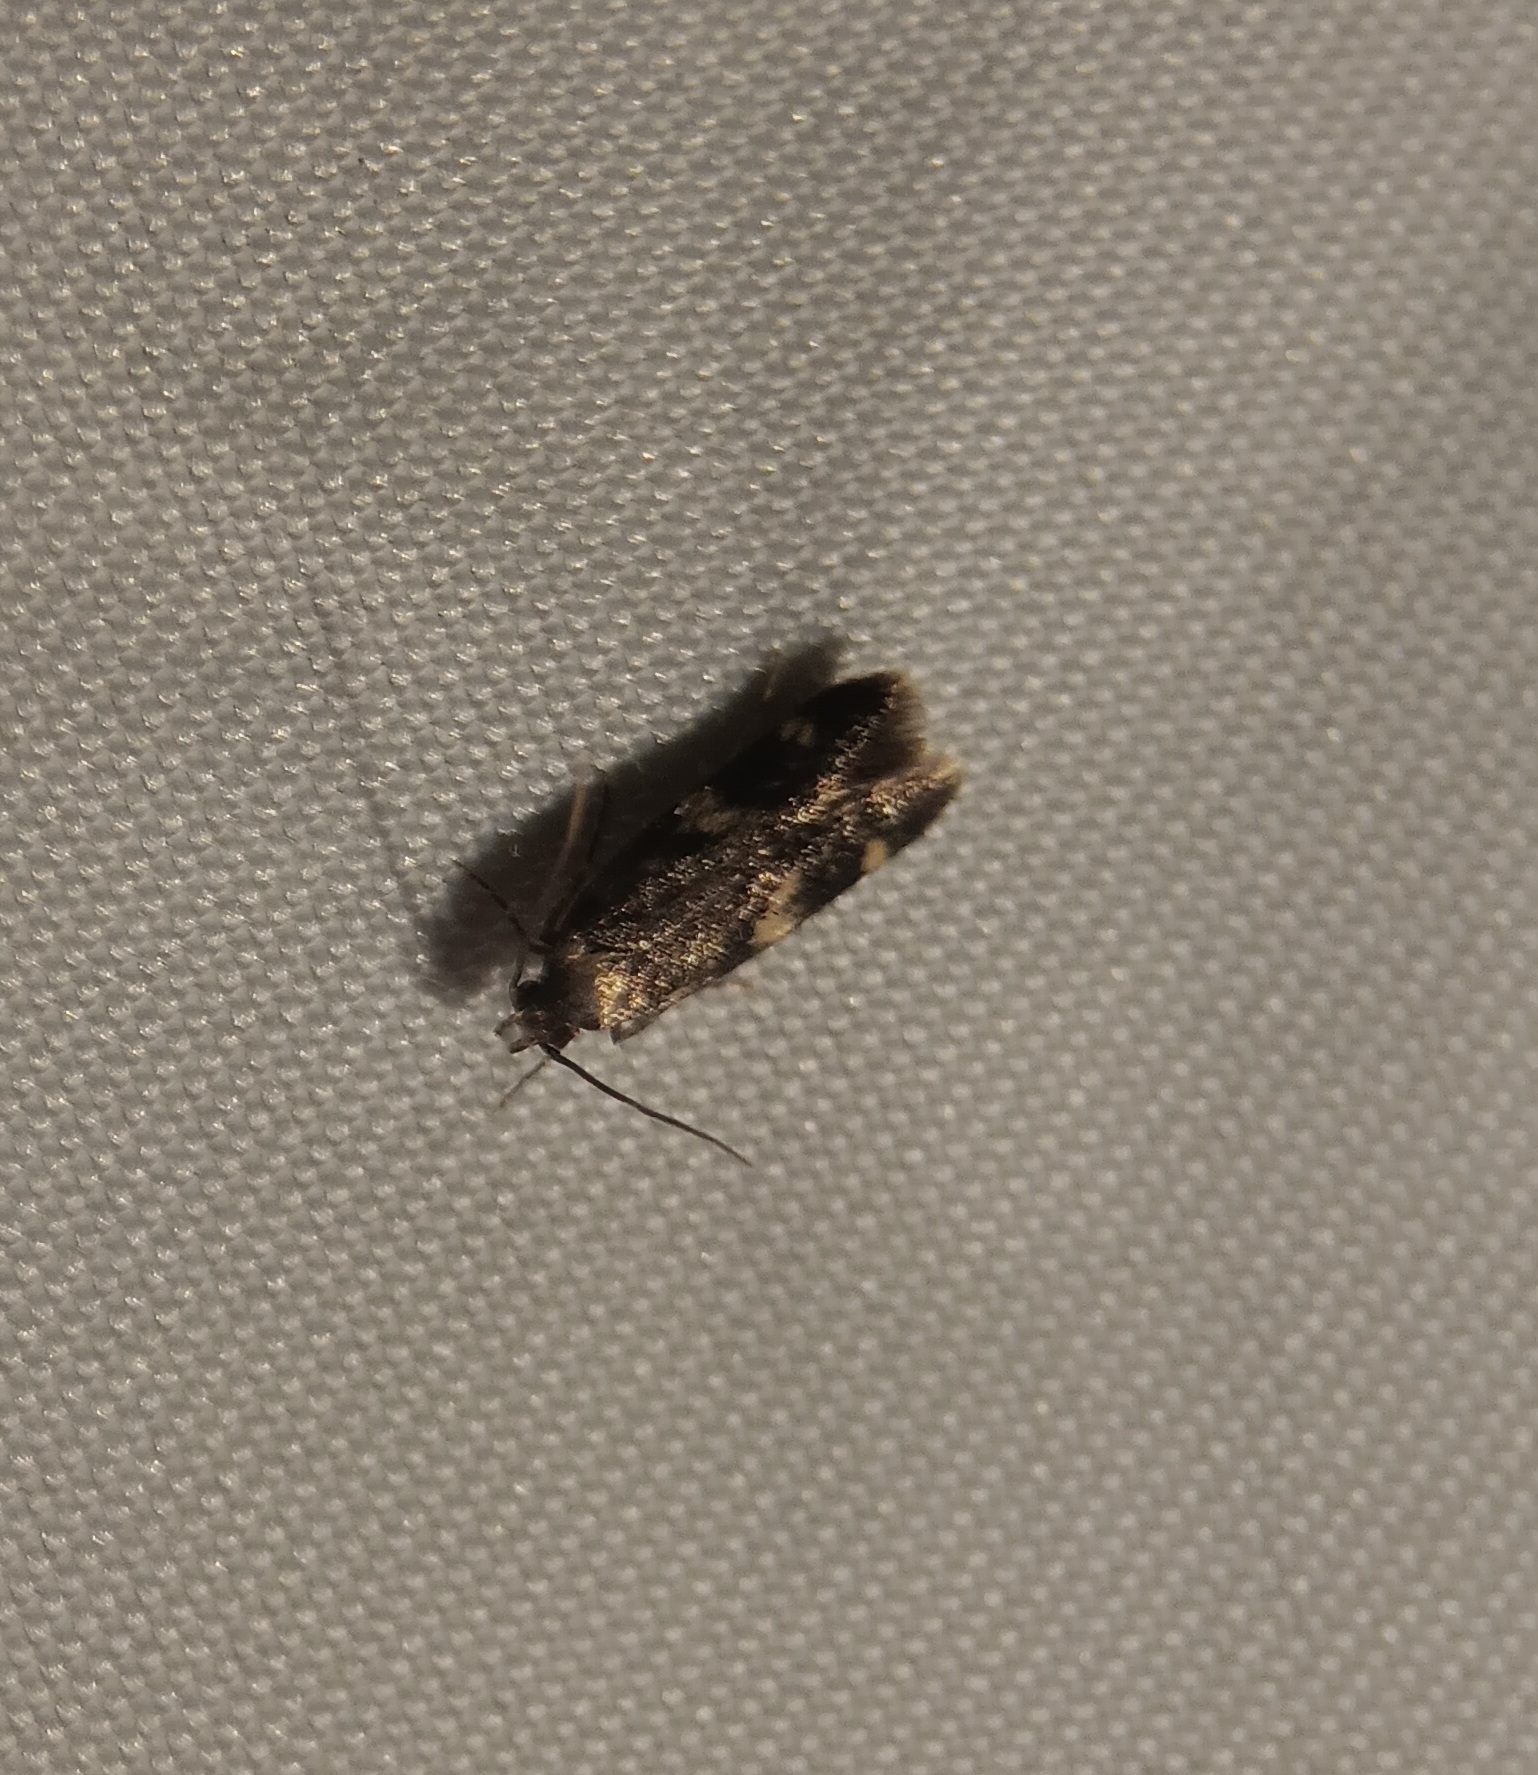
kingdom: Animalia
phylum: Arthropoda
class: Insecta
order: Lepidoptera
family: Autostichidae
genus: Oegoconia
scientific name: Oegoconia quadripuncta
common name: Four-spotted obscure
